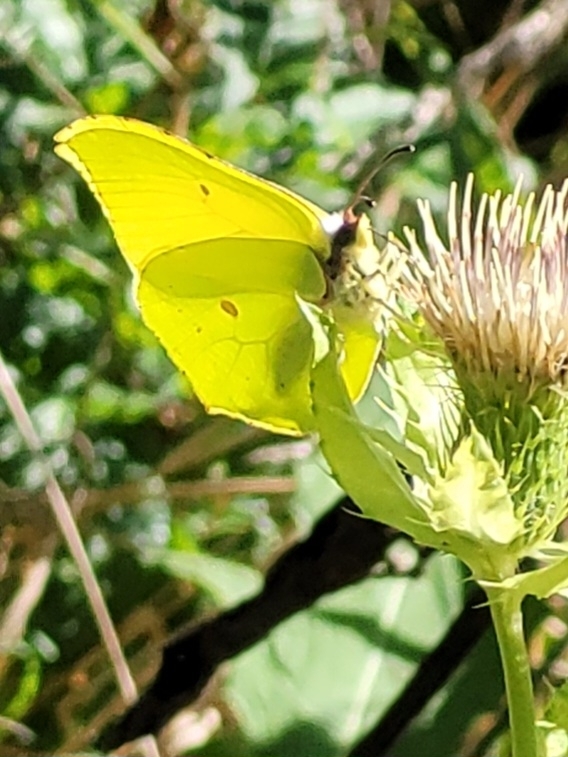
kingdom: Animalia
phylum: Arthropoda
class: Insecta
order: Lepidoptera
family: Pieridae
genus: Gonepteryx
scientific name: Gonepteryx rhamni
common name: Brimstone
